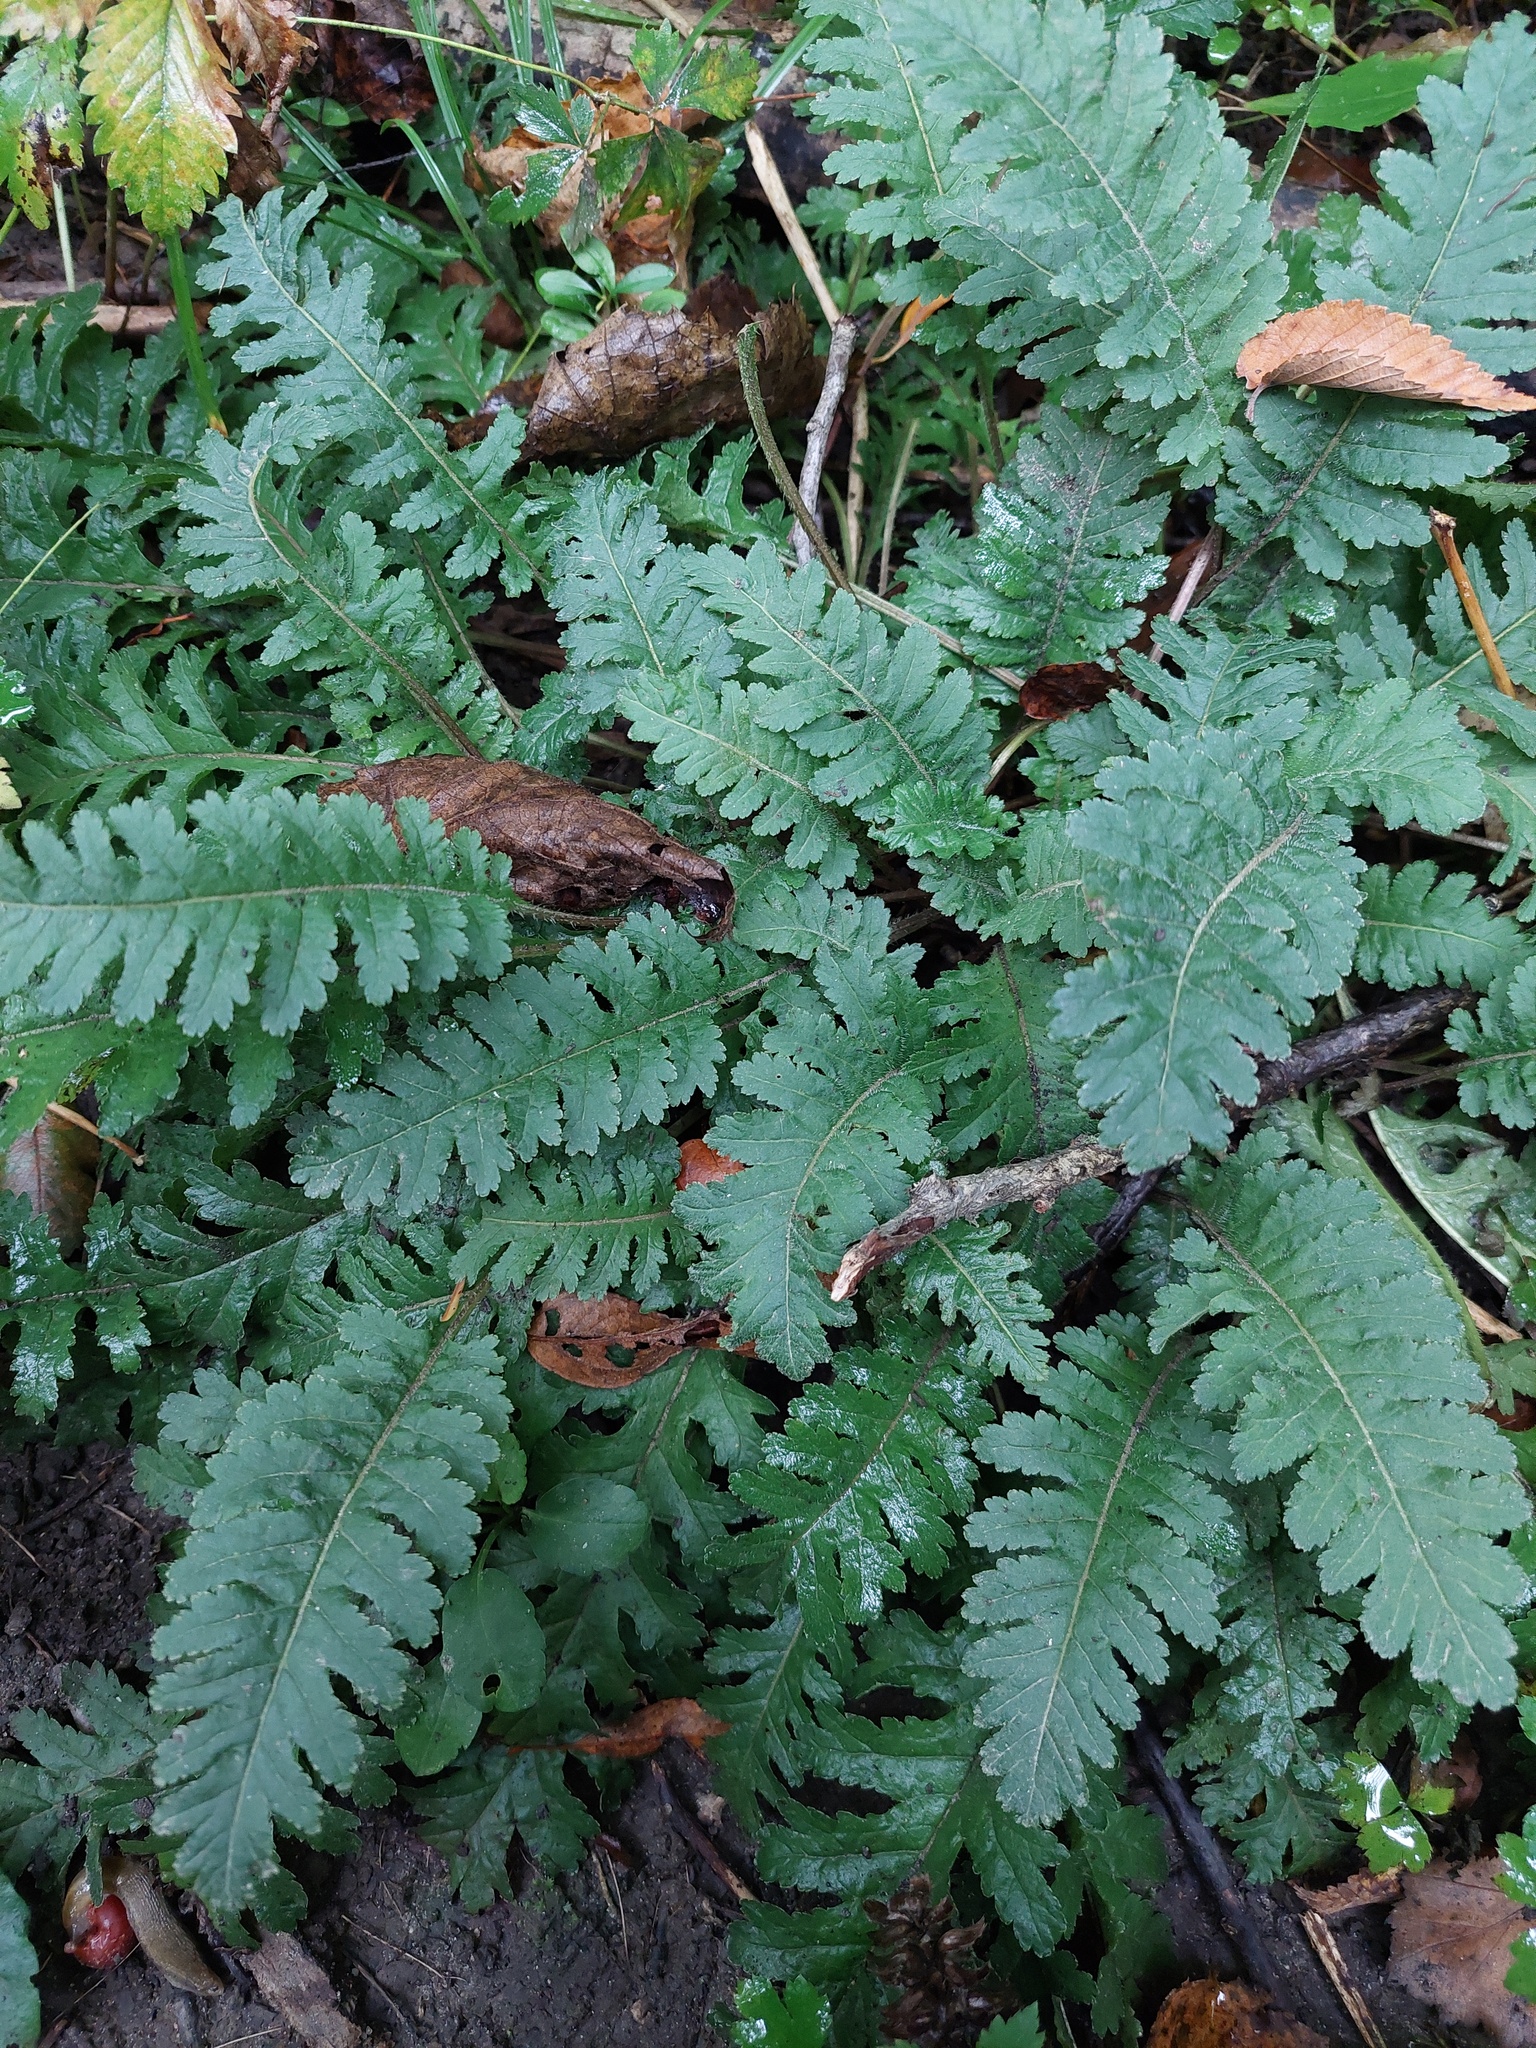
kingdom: Plantae
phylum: Tracheophyta
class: Magnoliopsida
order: Lamiales
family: Orobanchaceae
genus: Pedicularis
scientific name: Pedicularis canadensis
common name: Early lousewort
